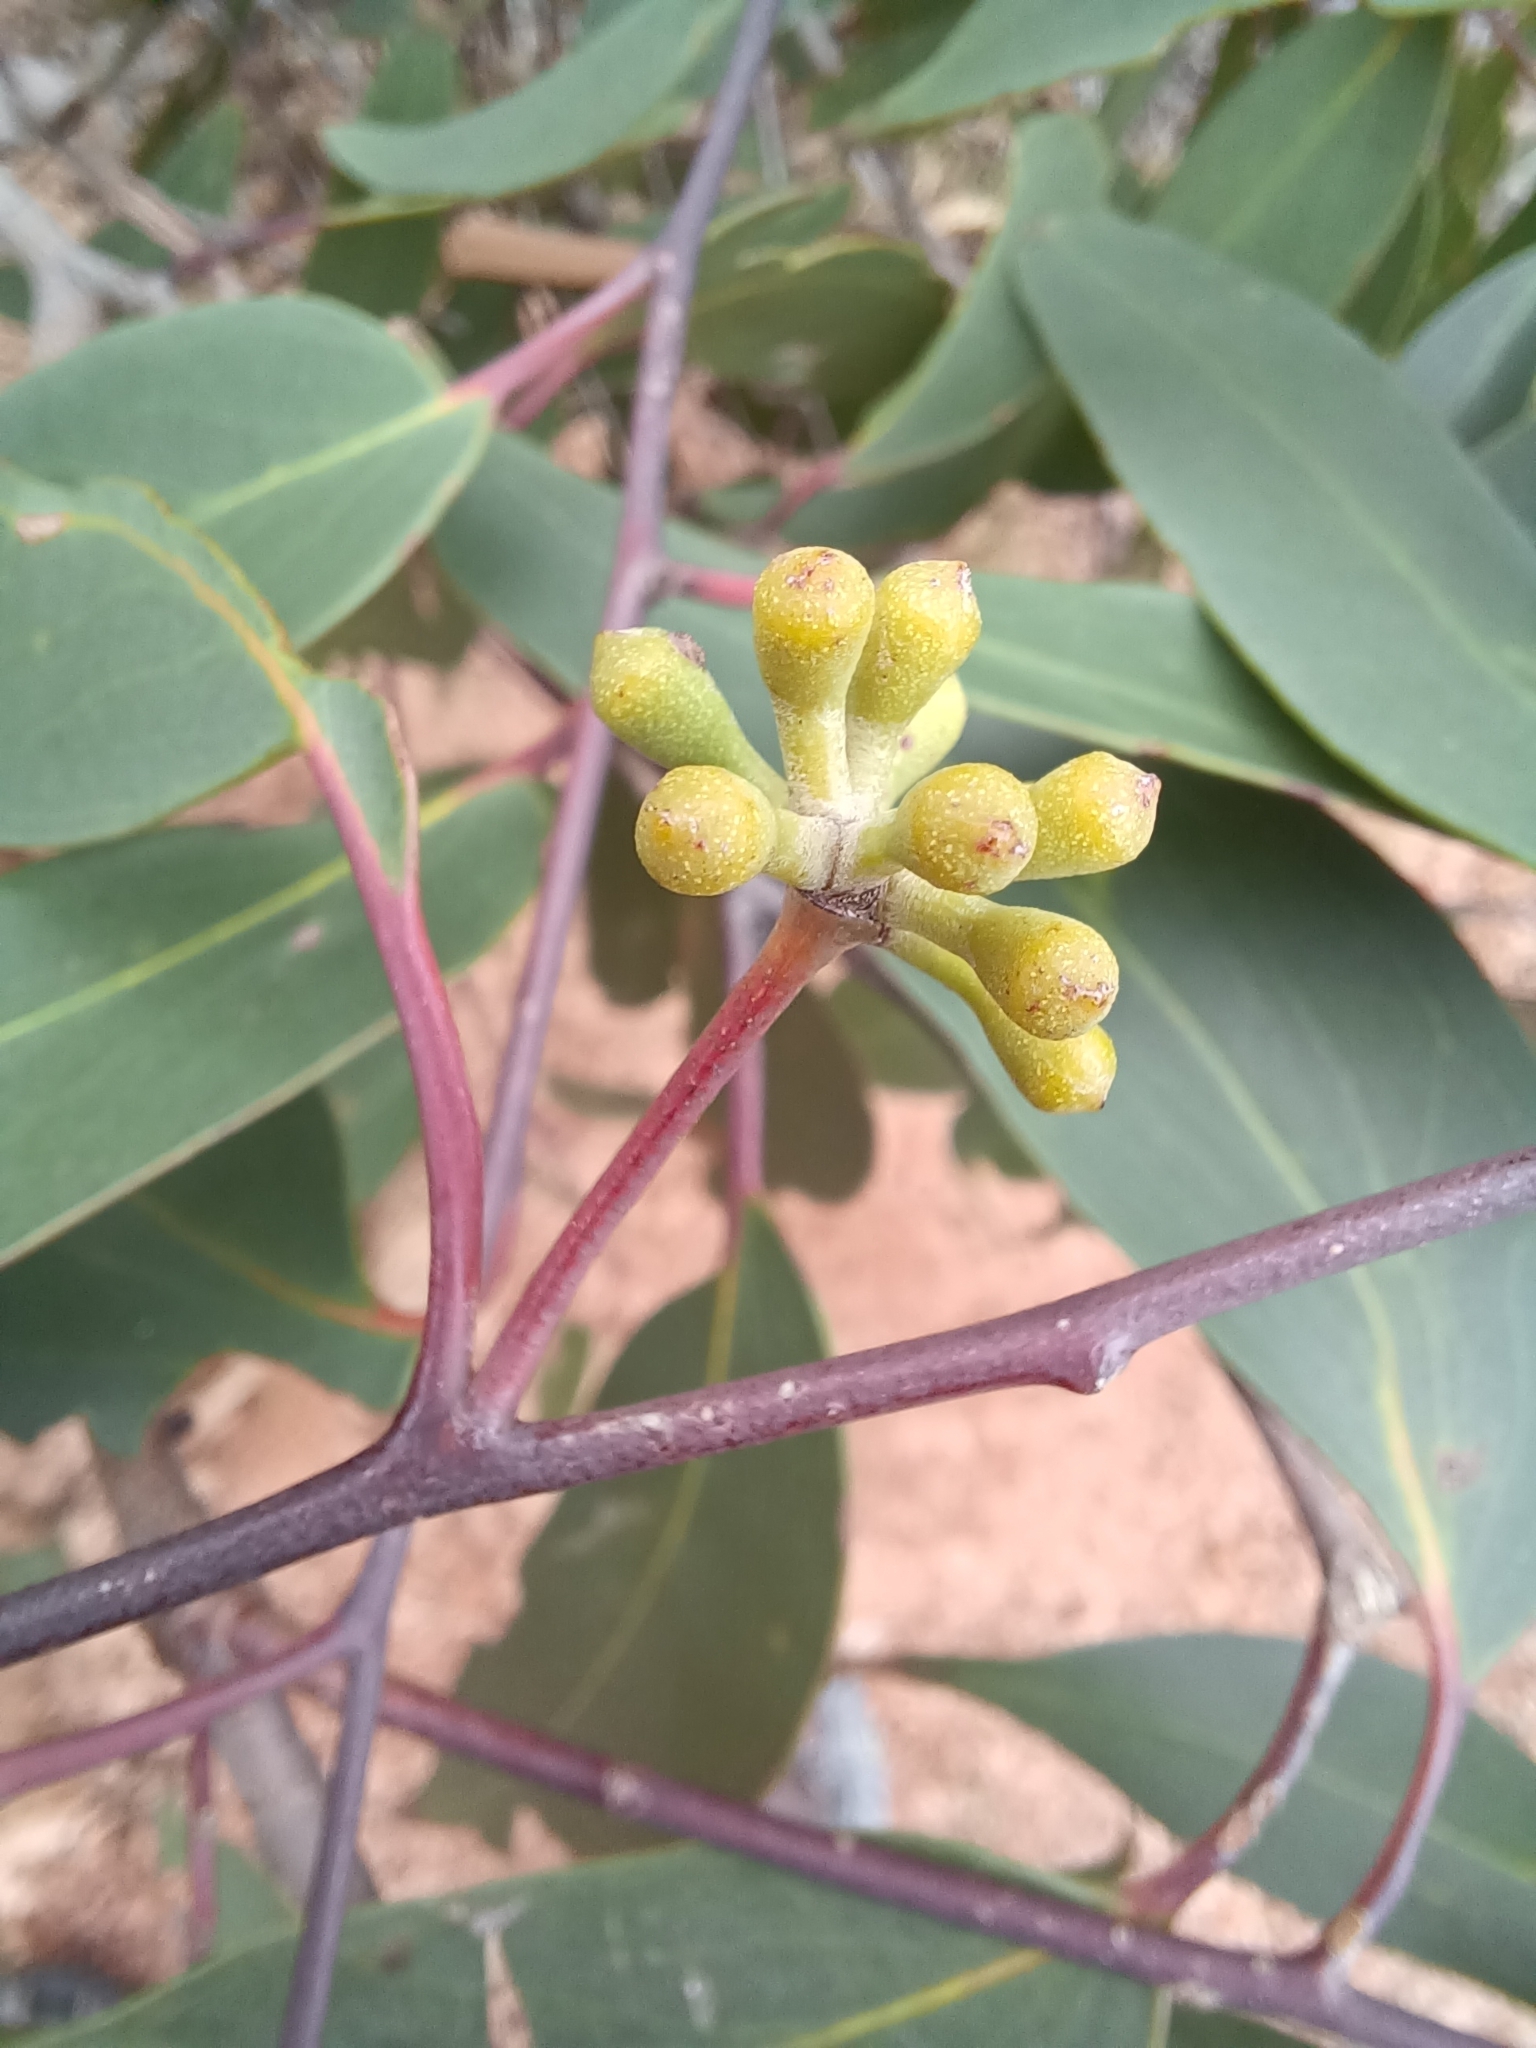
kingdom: Plantae
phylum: Tracheophyta
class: Magnoliopsida
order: Myrtales
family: Myrtaceae
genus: Eucalyptus
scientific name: Eucalyptus obliqua
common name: Messmate stringybark
